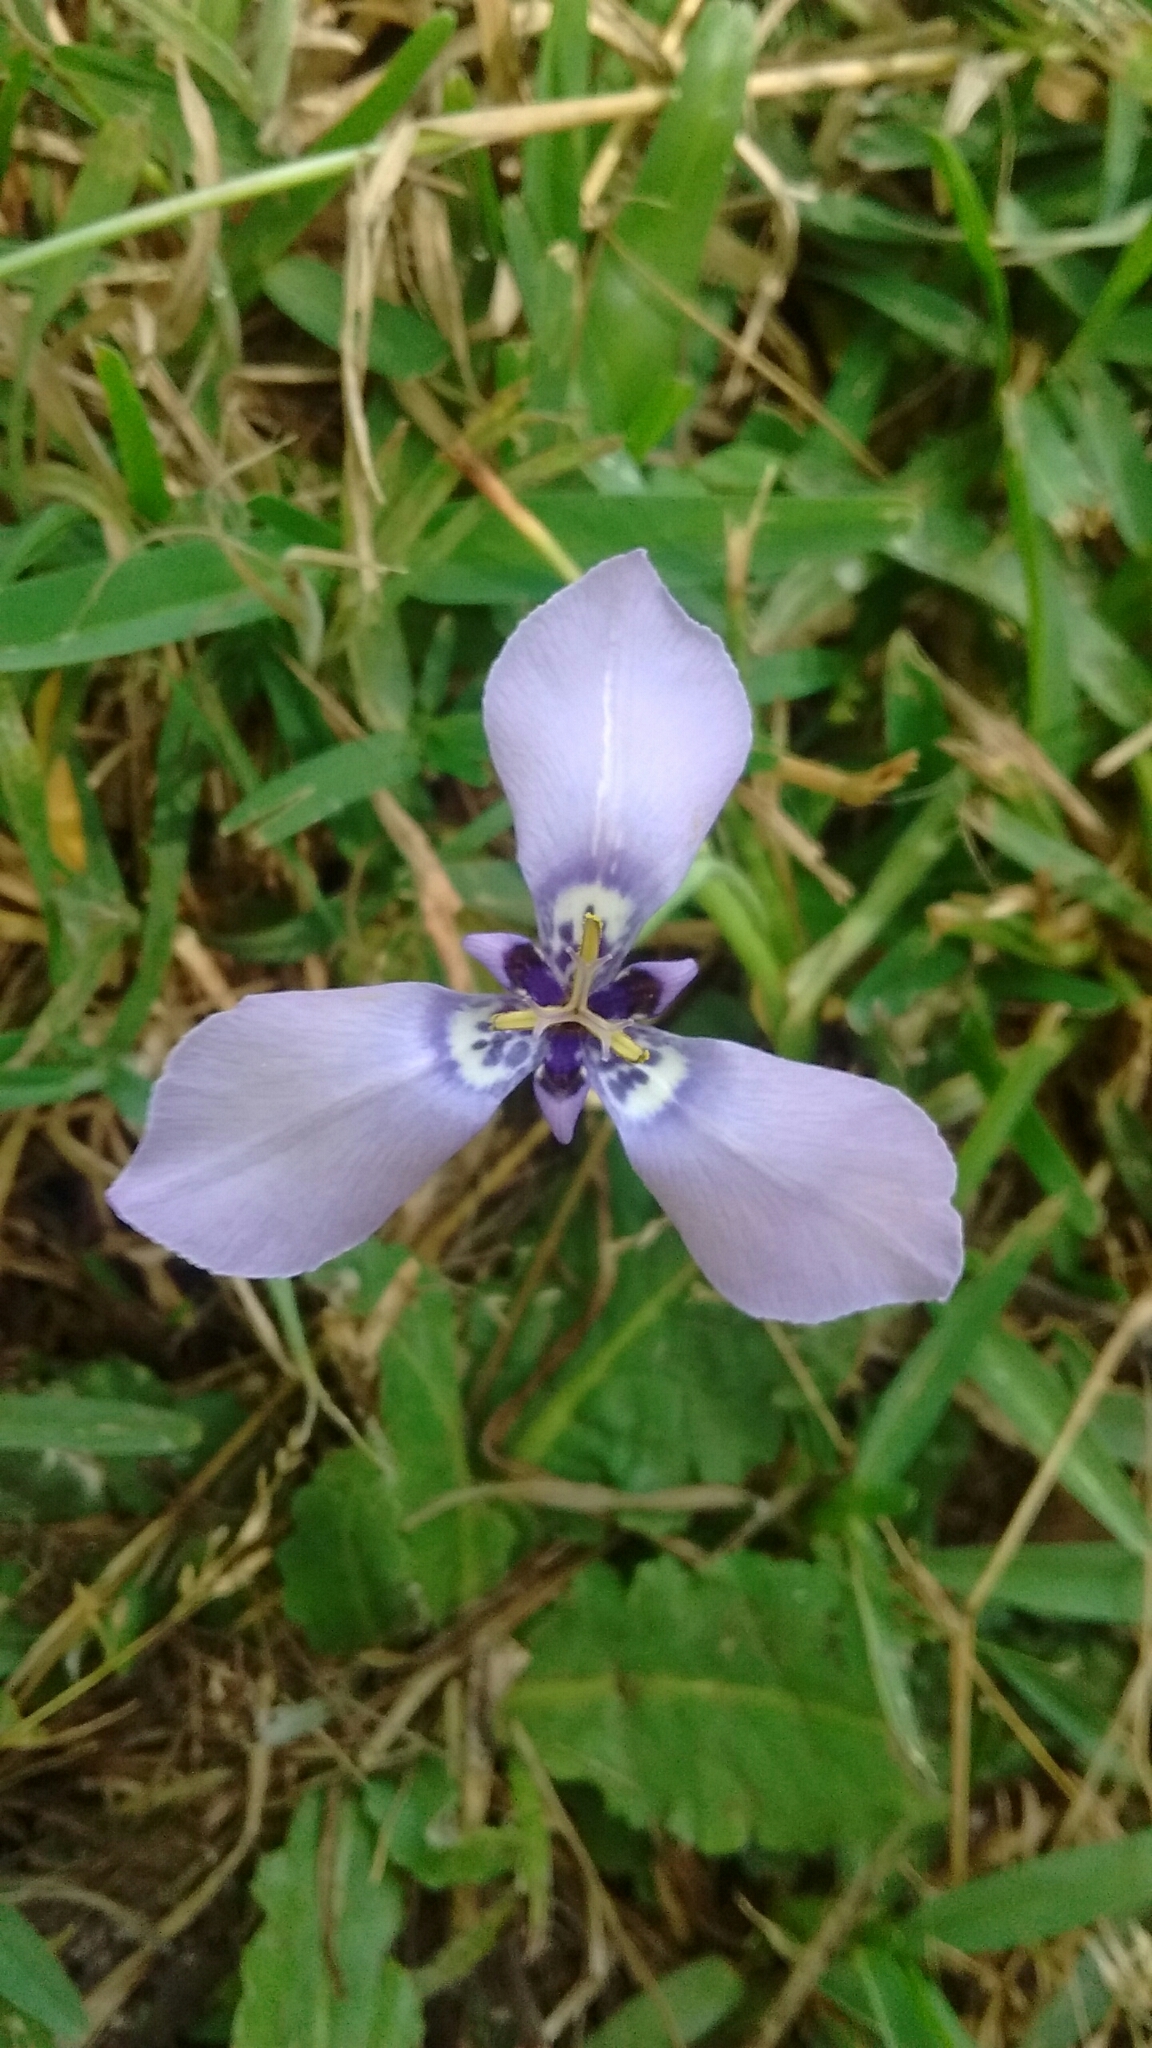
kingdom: Plantae
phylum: Tracheophyta
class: Liliopsida
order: Asparagales
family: Iridaceae
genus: Herbertia
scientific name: Herbertia lahue
